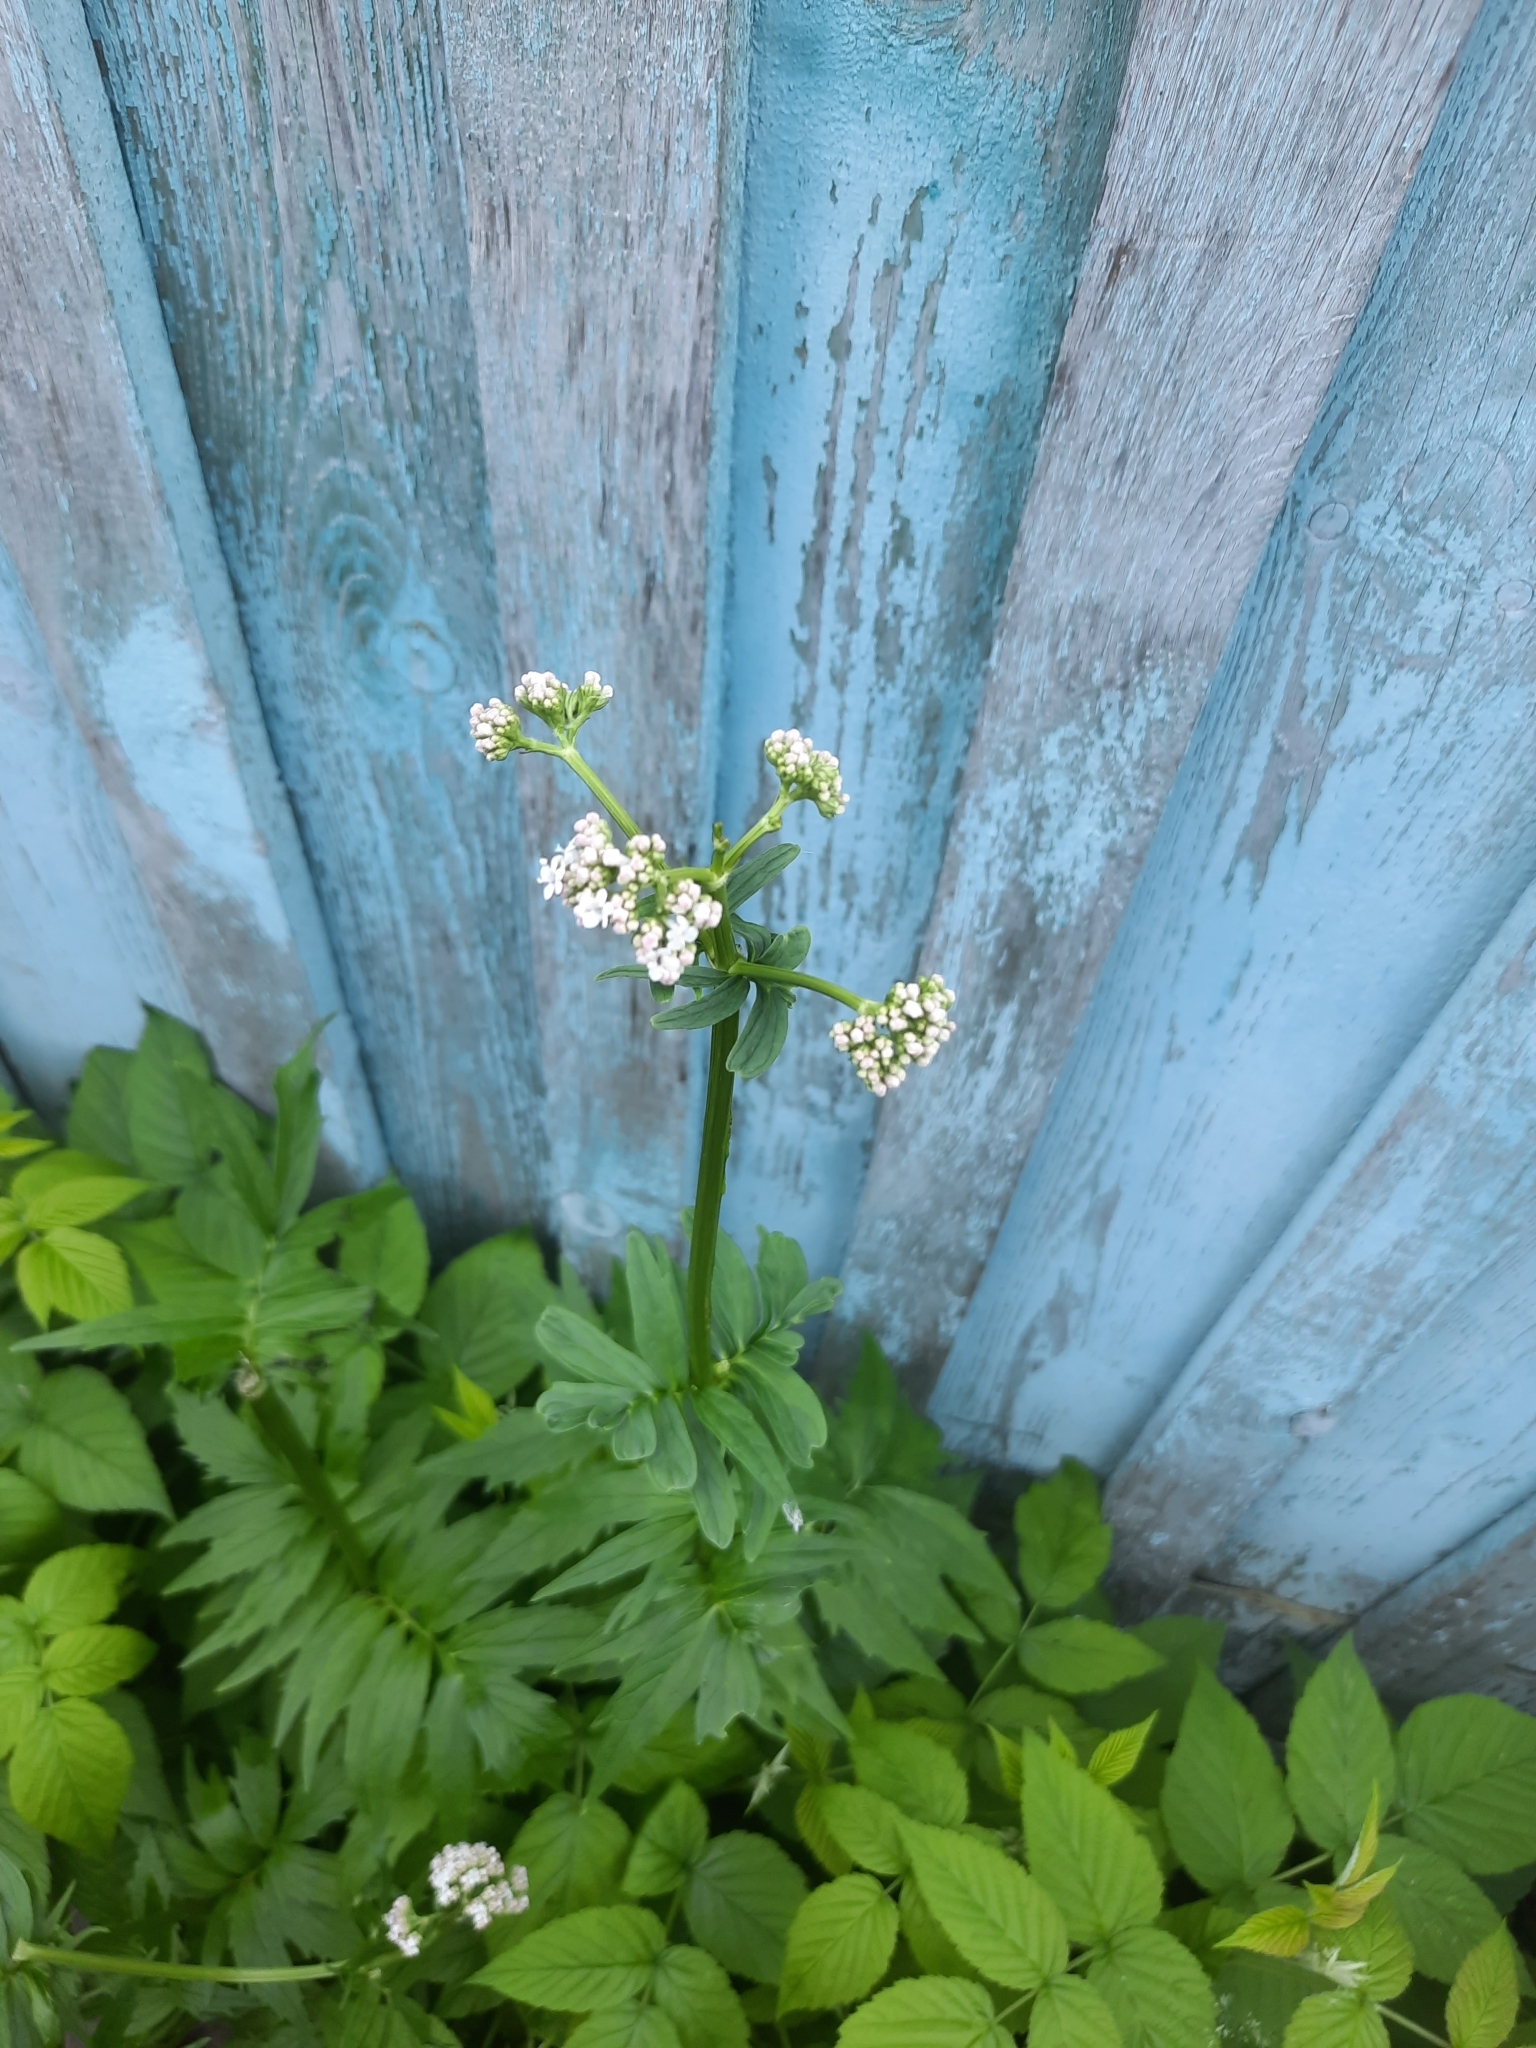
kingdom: Plantae
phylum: Tracheophyta
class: Magnoliopsida
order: Dipsacales
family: Caprifoliaceae
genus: Valeriana
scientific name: Valeriana officinalis
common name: Common valerian
